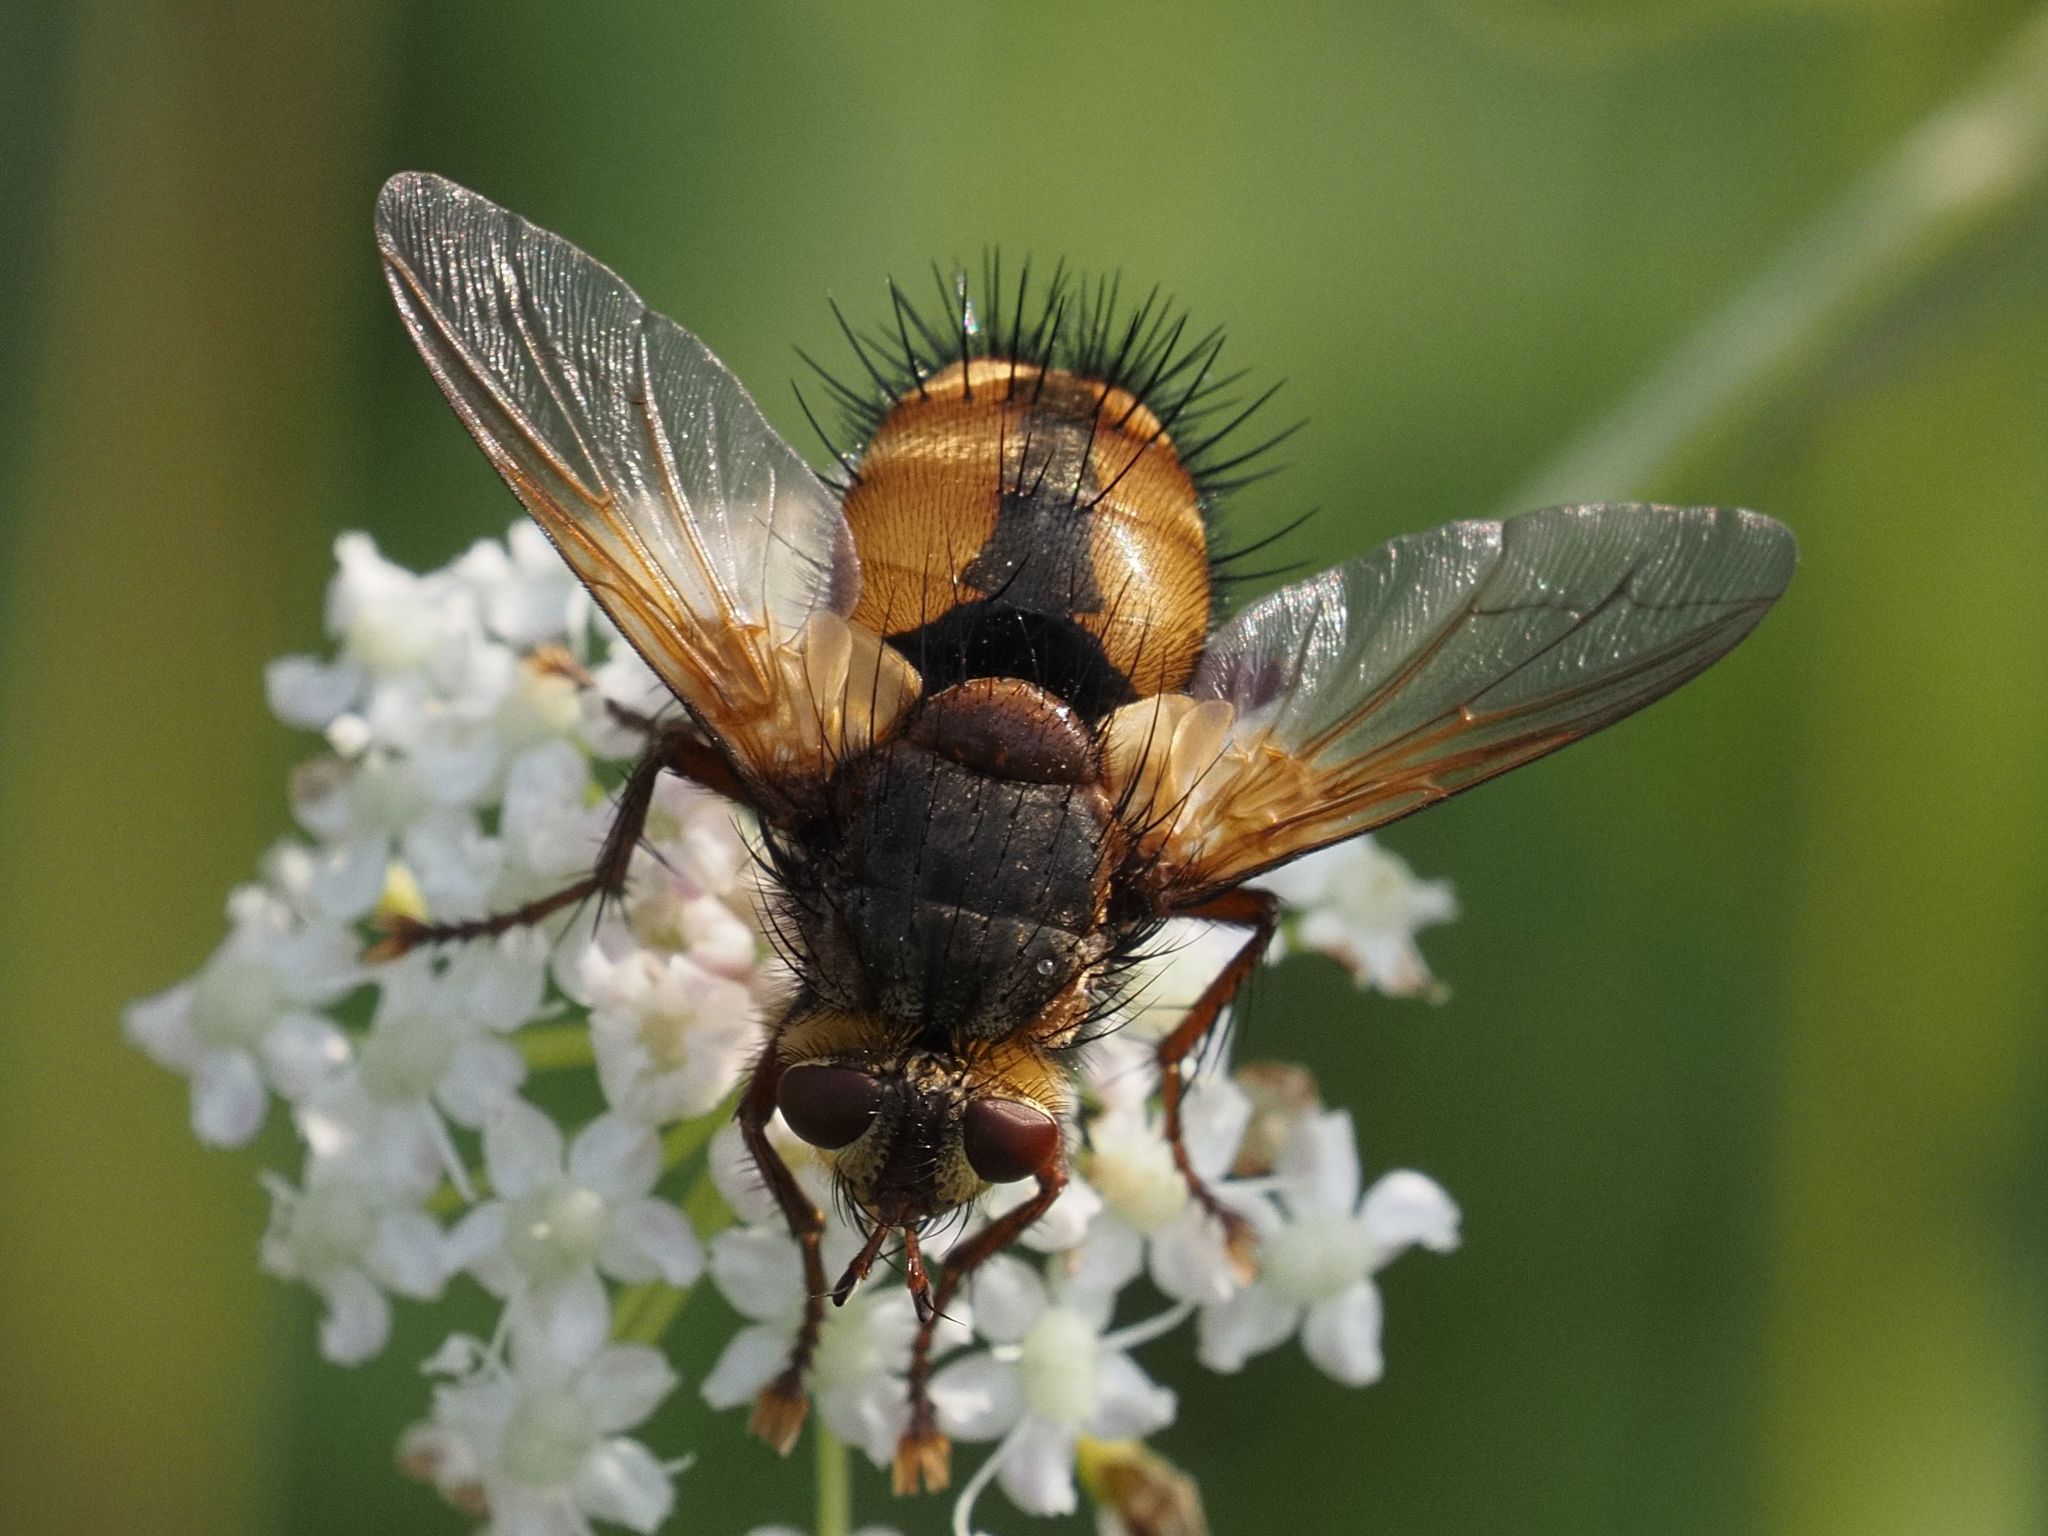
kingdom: Animalia
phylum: Arthropoda
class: Insecta
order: Diptera
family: Tachinidae
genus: Tachina
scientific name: Tachina fera
